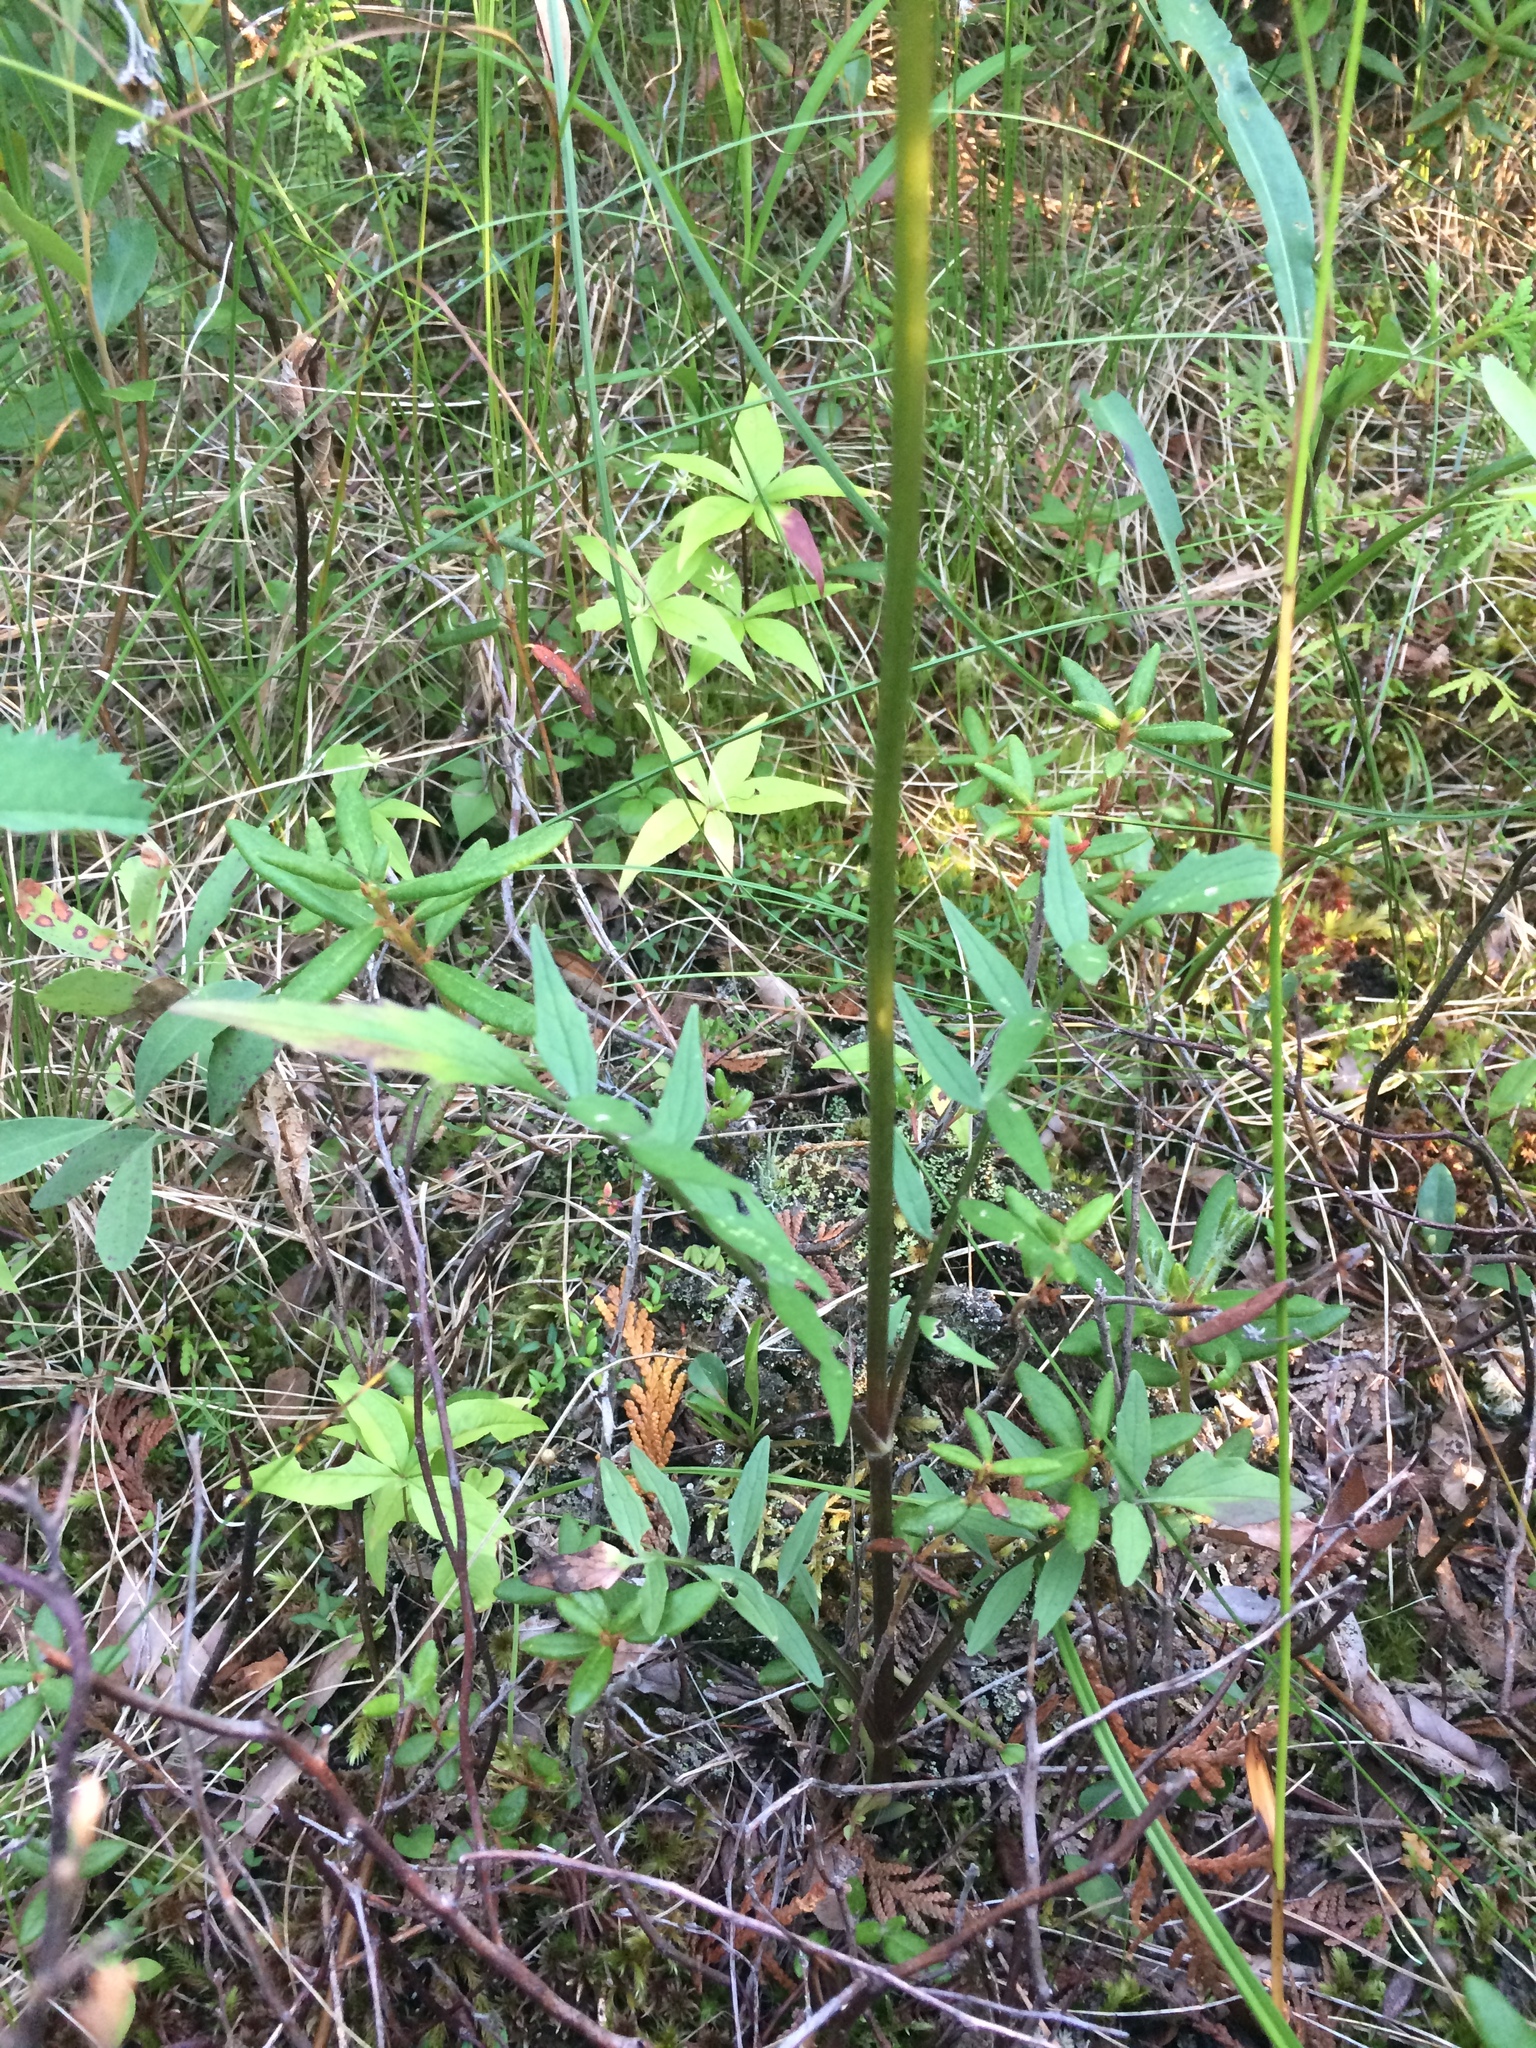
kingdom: Plantae
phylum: Tracheophyta
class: Magnoliopsida
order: Dipsacales
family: Caprifoliaceae
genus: Valeriana
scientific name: Valeriana uliginosa
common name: Marsh valerian
